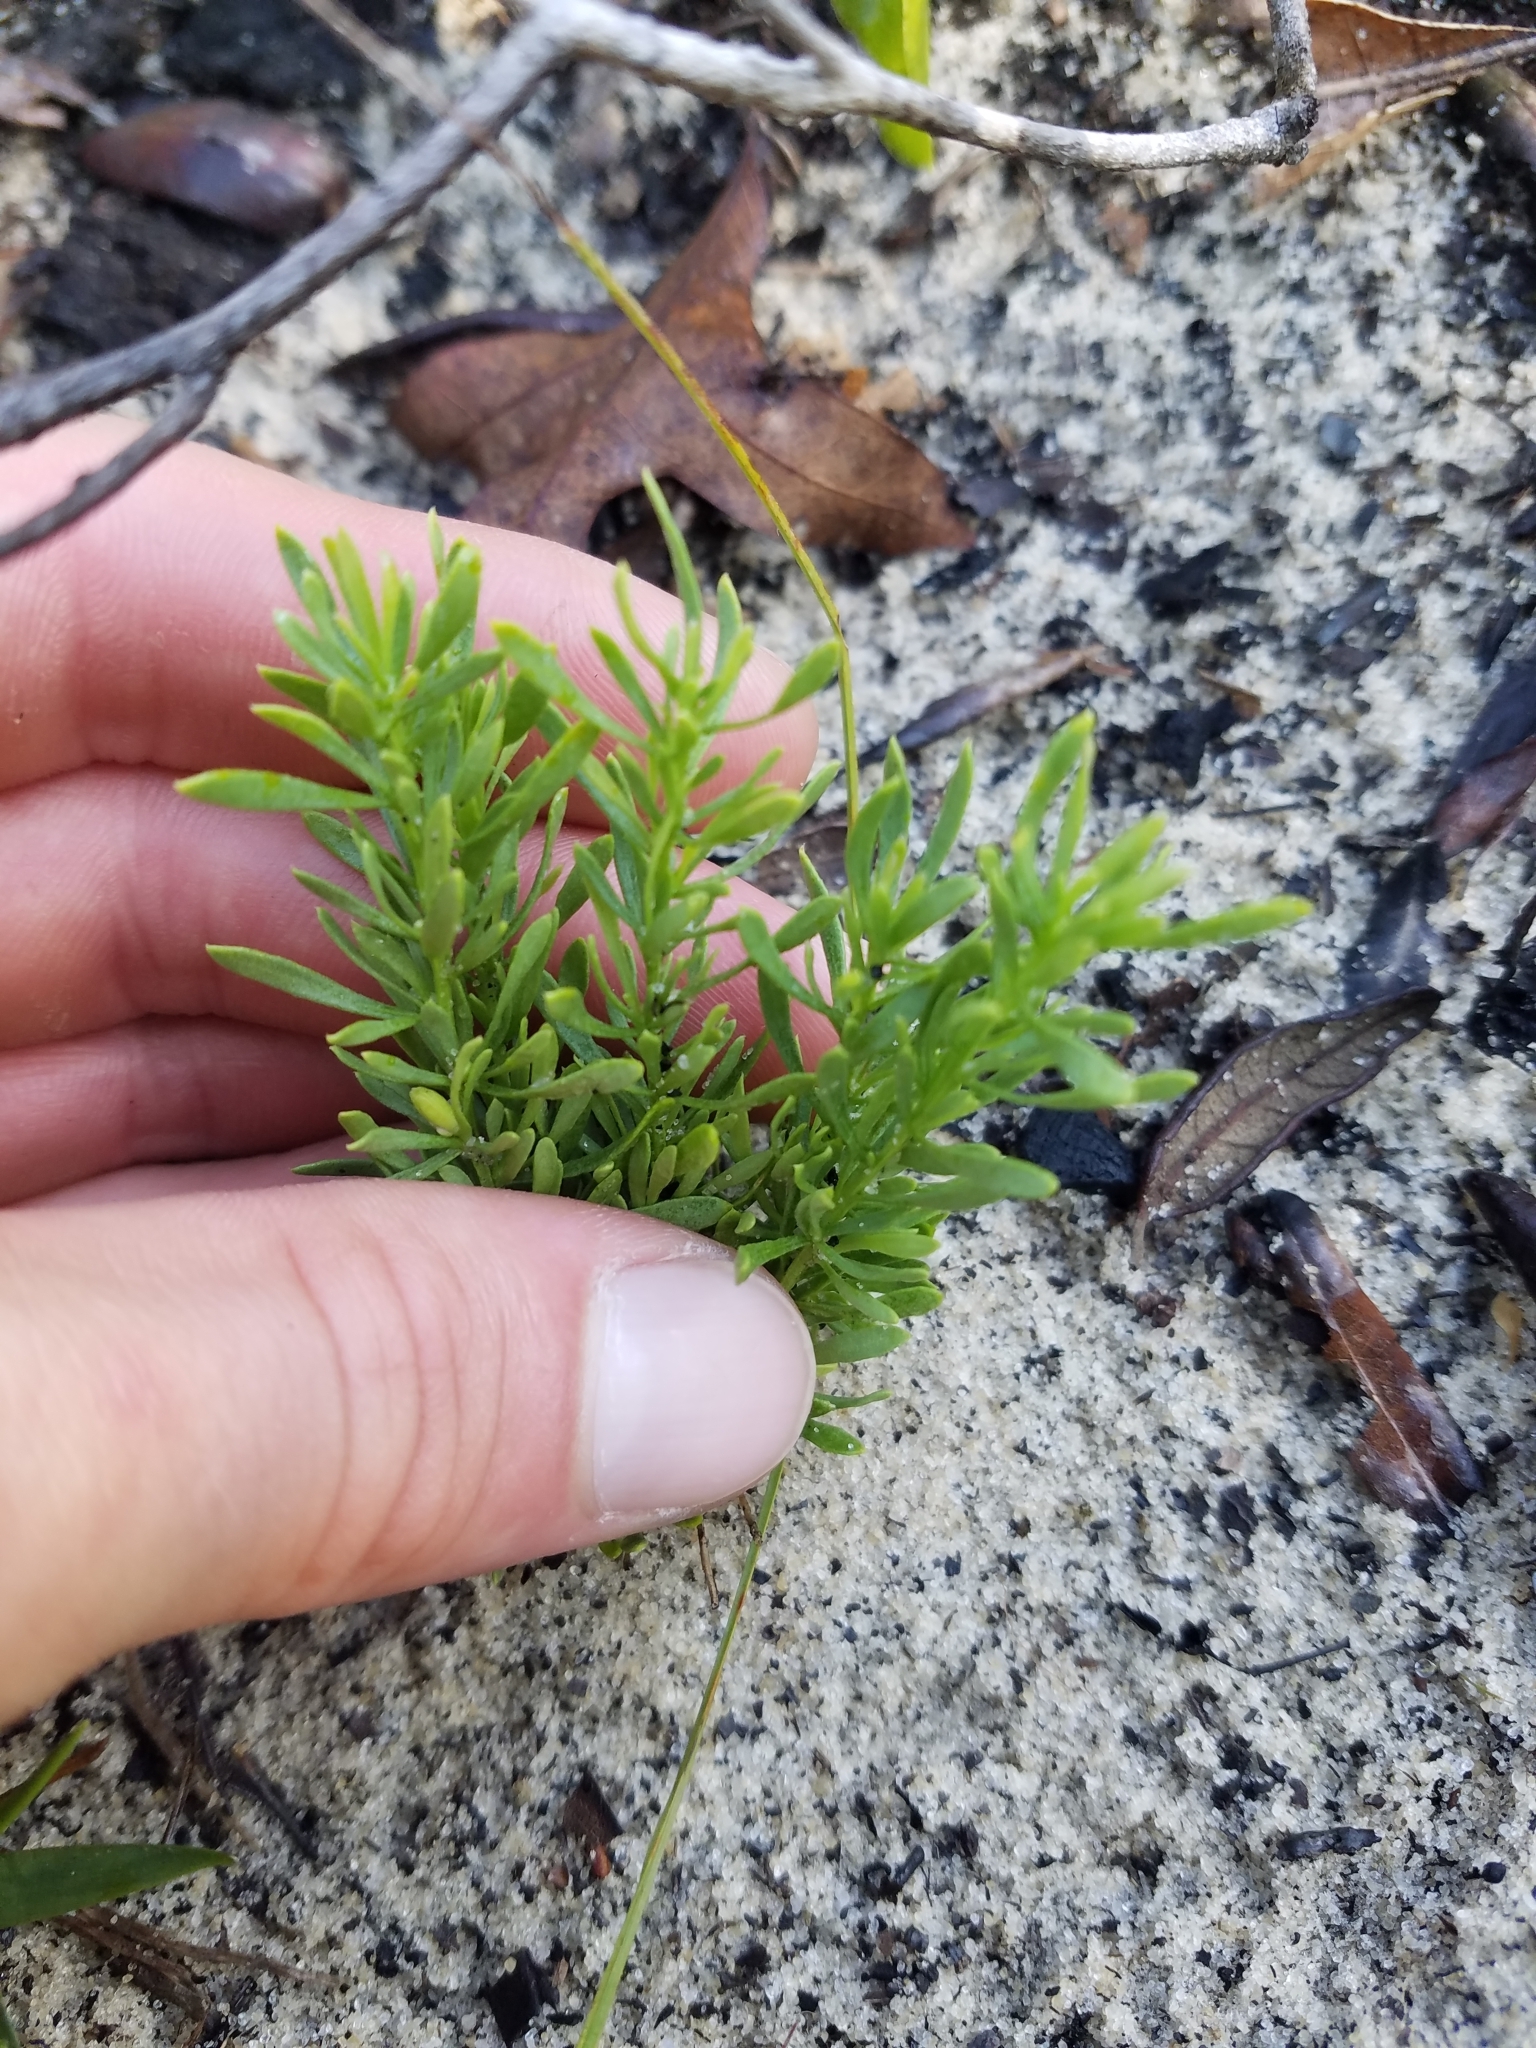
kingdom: Plantae
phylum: Tracheophyta
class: Magnoliopsida
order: Fabales
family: Polygalaceae
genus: Polygala
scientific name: Polygala lewtonii
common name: Lewton's polygala
